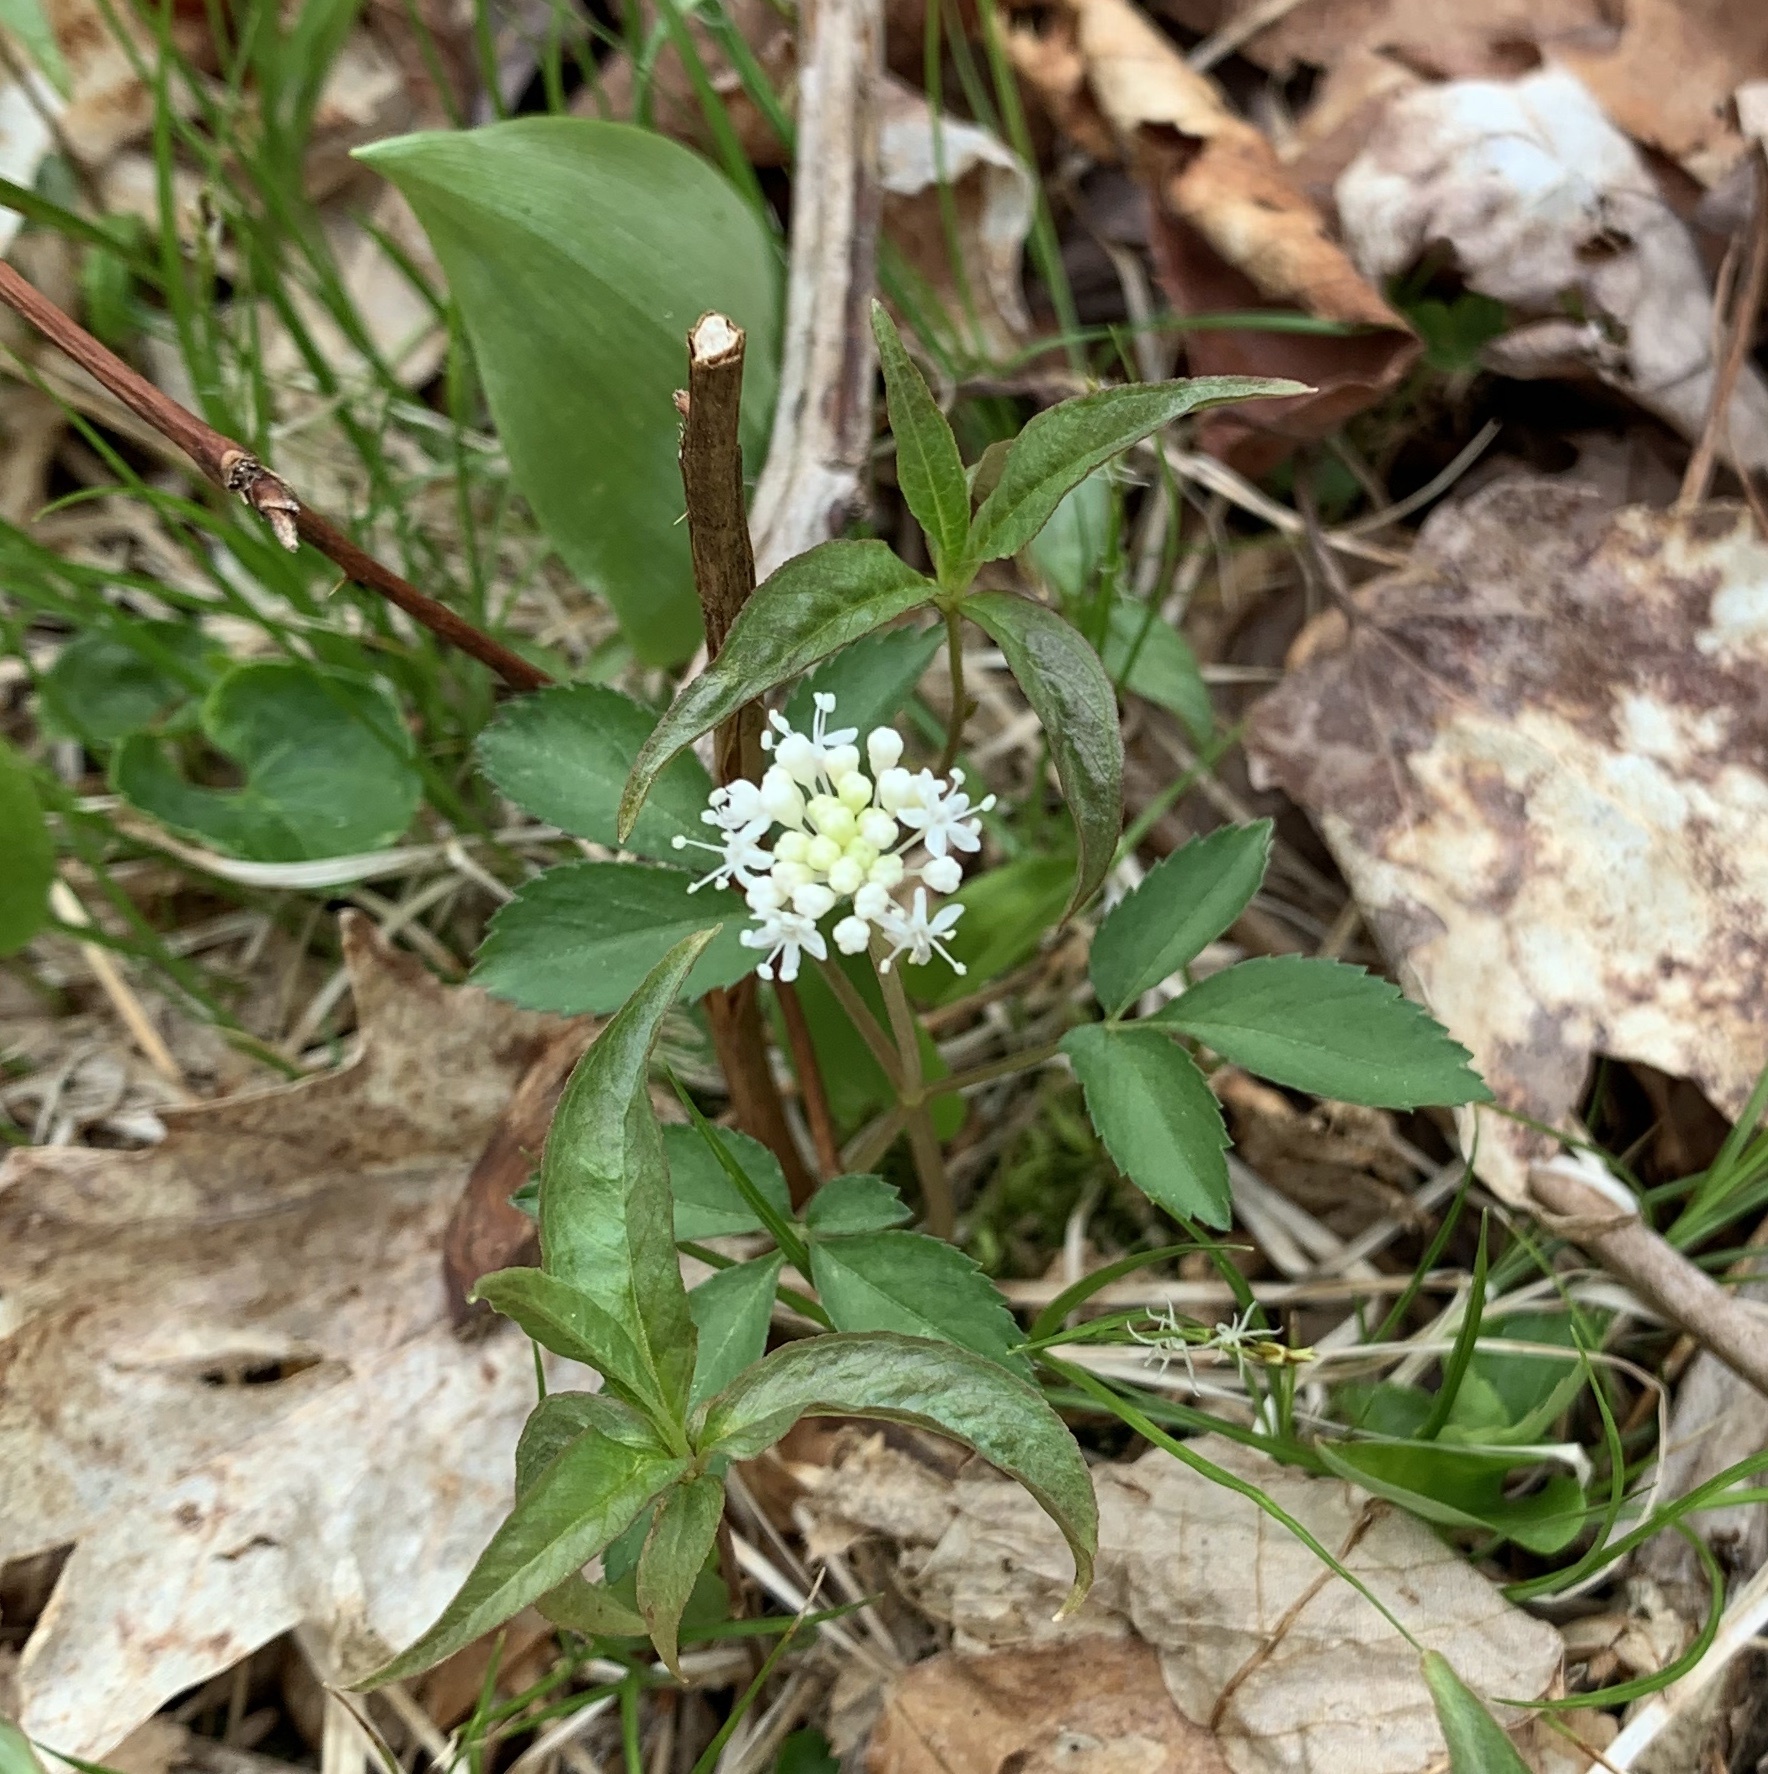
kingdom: Plantae
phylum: Tracheophyta
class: Magnoliopsida
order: Apiales
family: Araliaceae
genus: Panax
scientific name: Panax trifolius
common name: Dwarf ginseng
